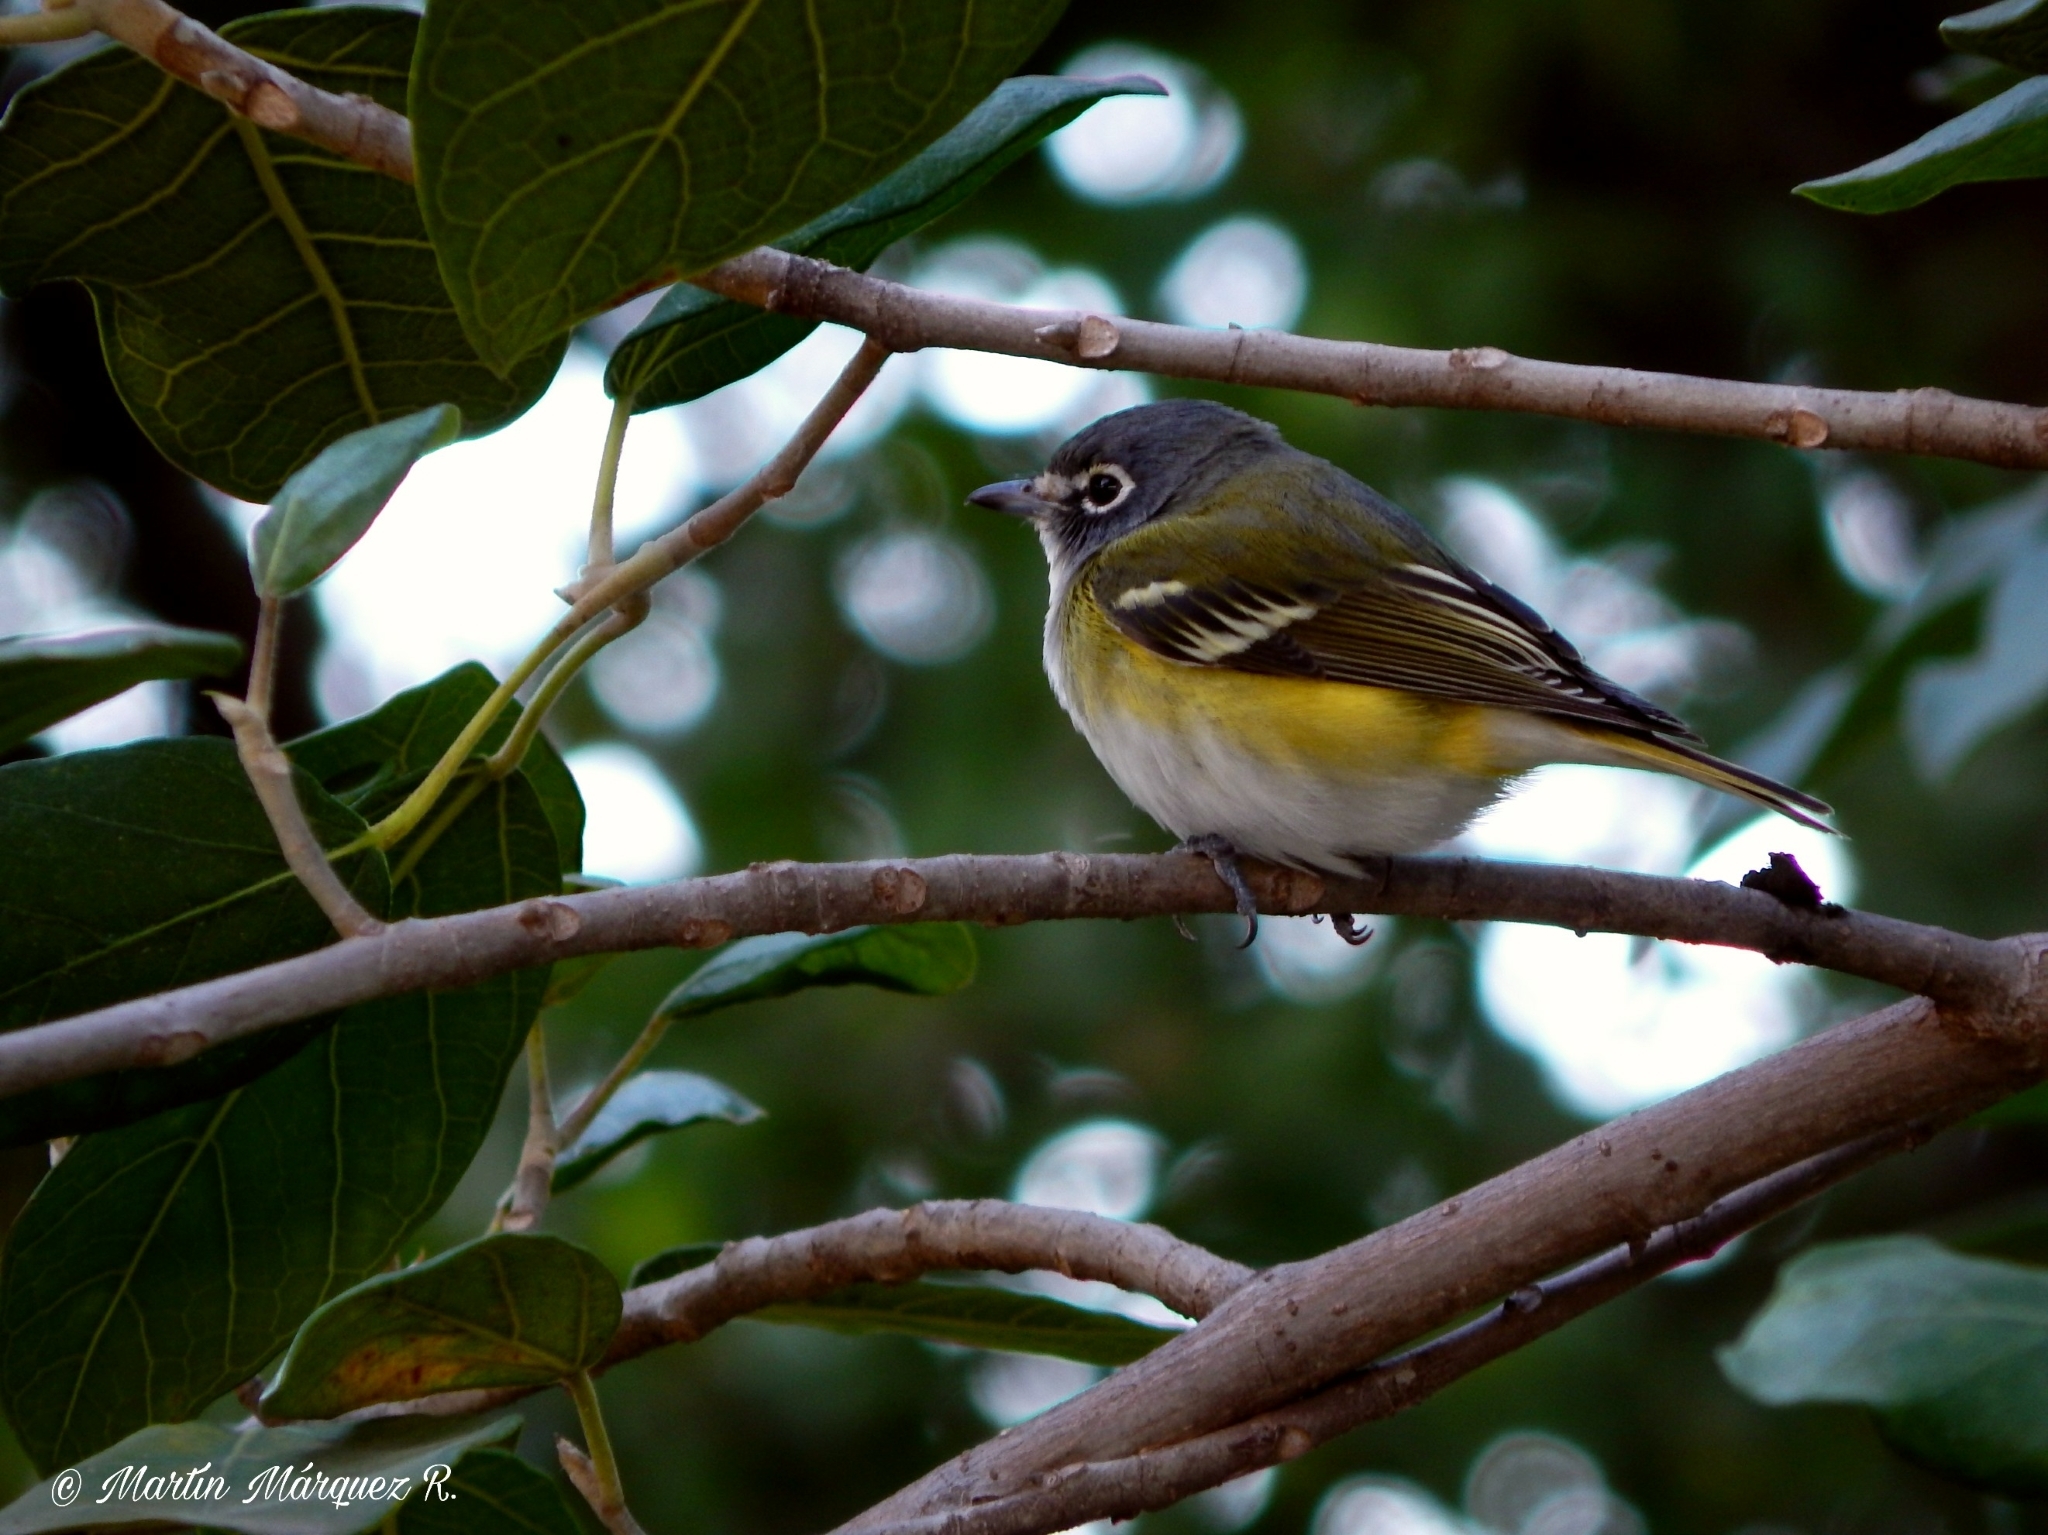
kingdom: Animalia
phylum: Chordata
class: Aves
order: Passeriformes
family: Vireonidae
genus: Vireo
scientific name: Vireo solitarius
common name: Blue-headed vireo
